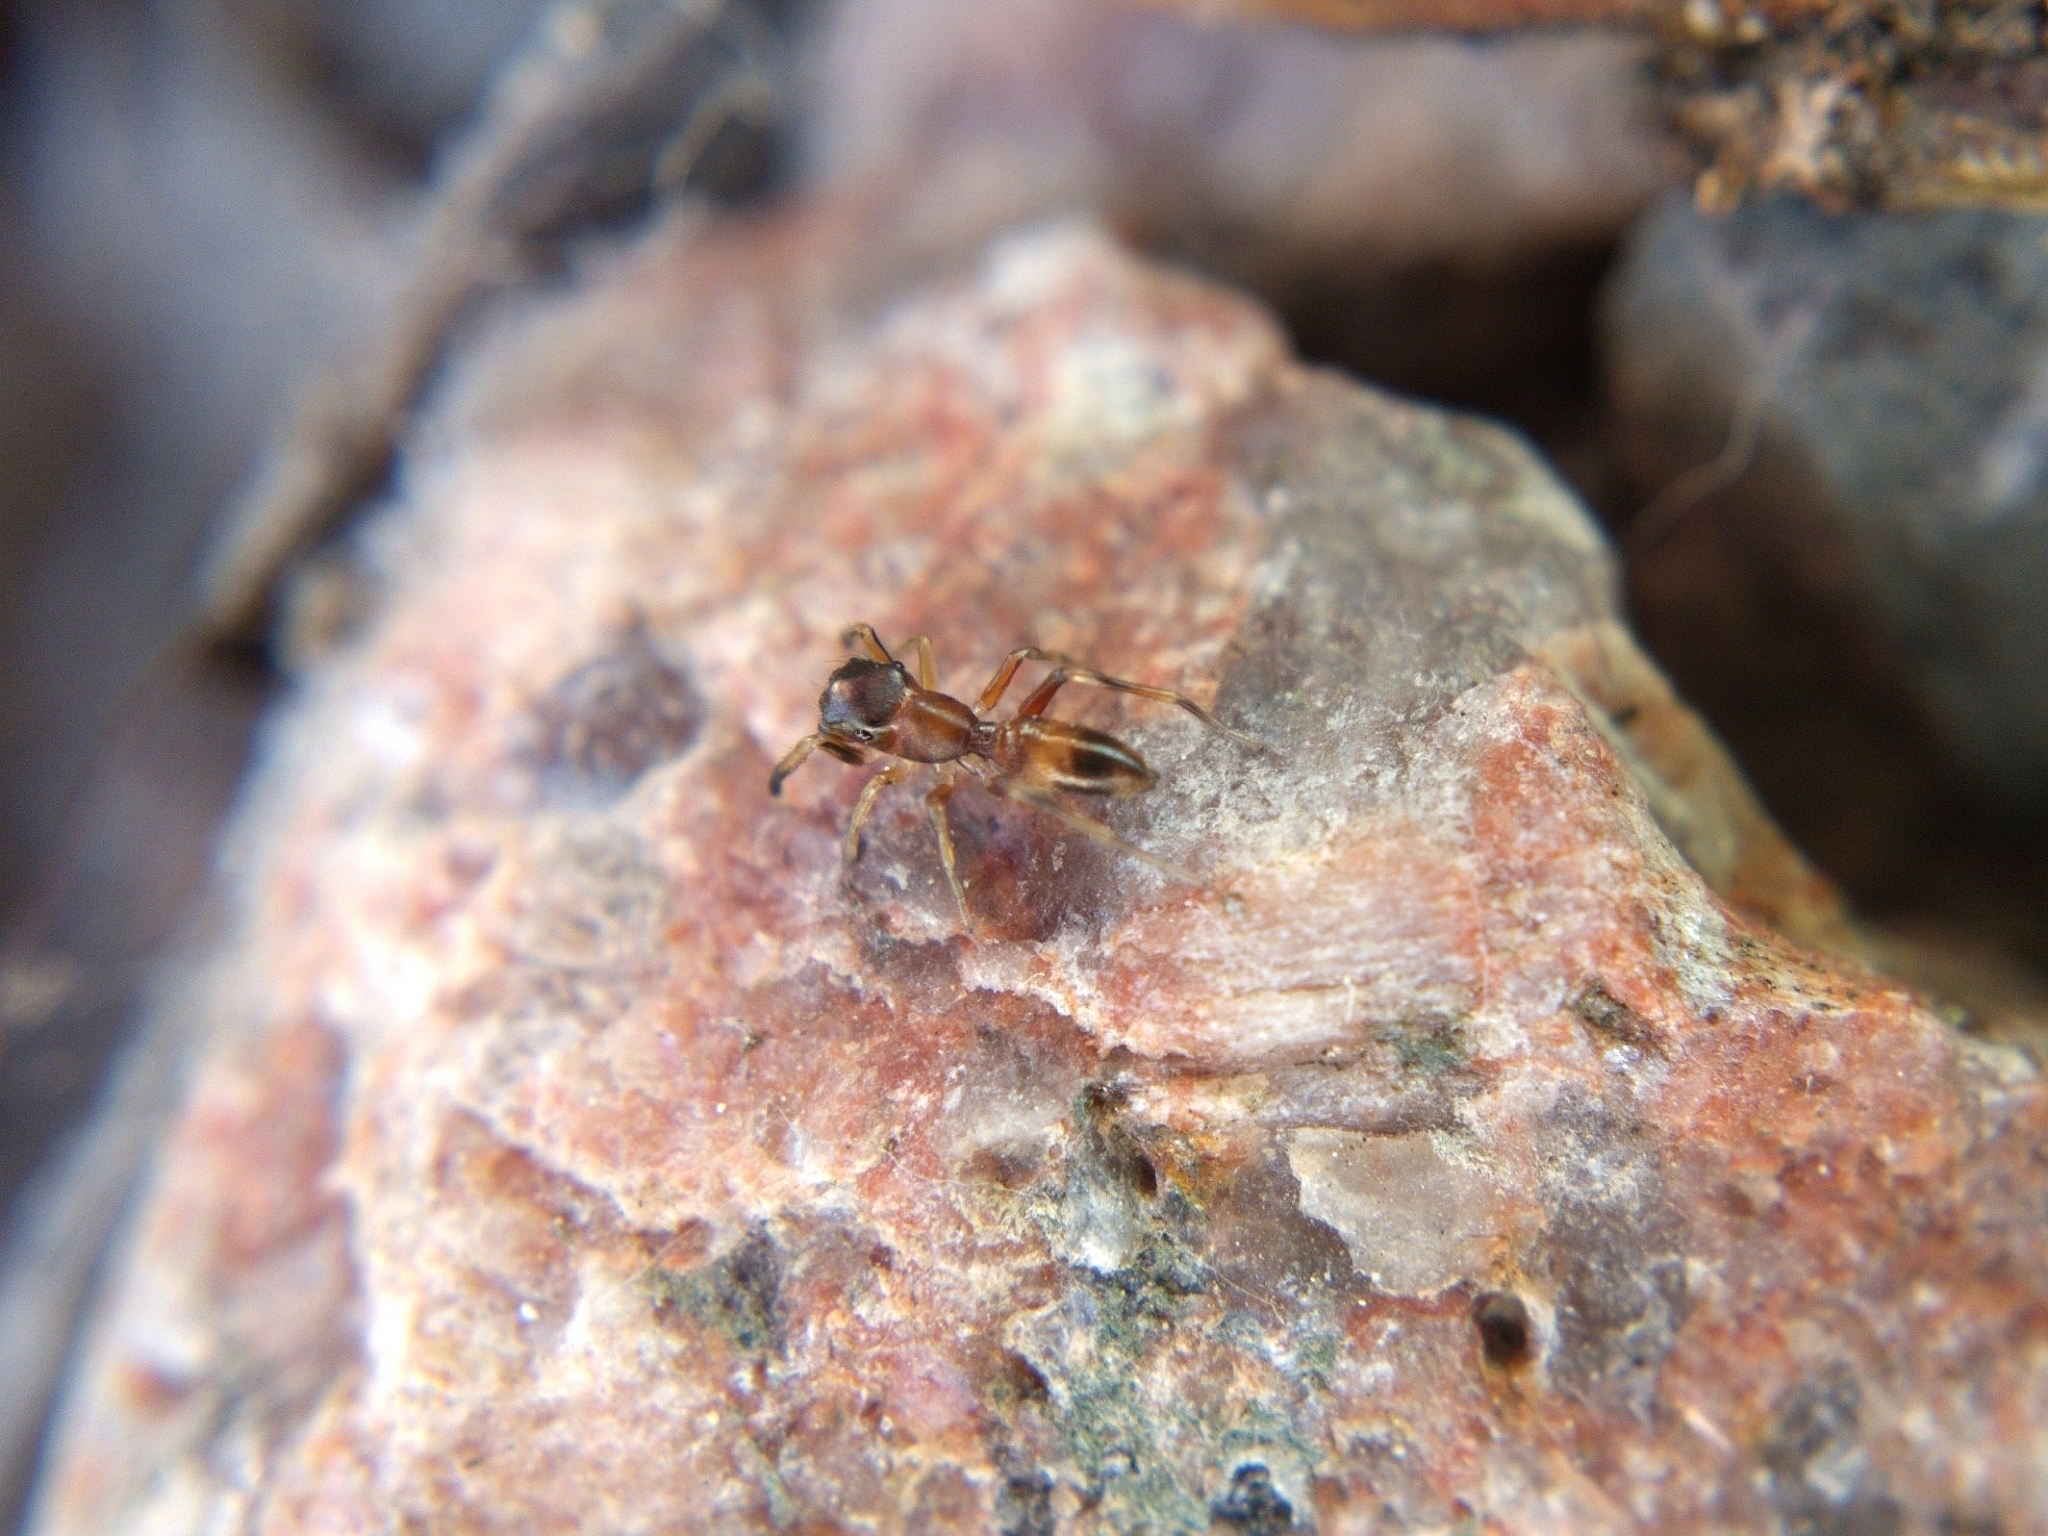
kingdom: Animalia
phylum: Arthropoda
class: Arachnida
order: Araneae
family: Salticidae
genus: Myrmarachne
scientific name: Myrmarachne formicaria
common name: Ant mimic jumping spider
